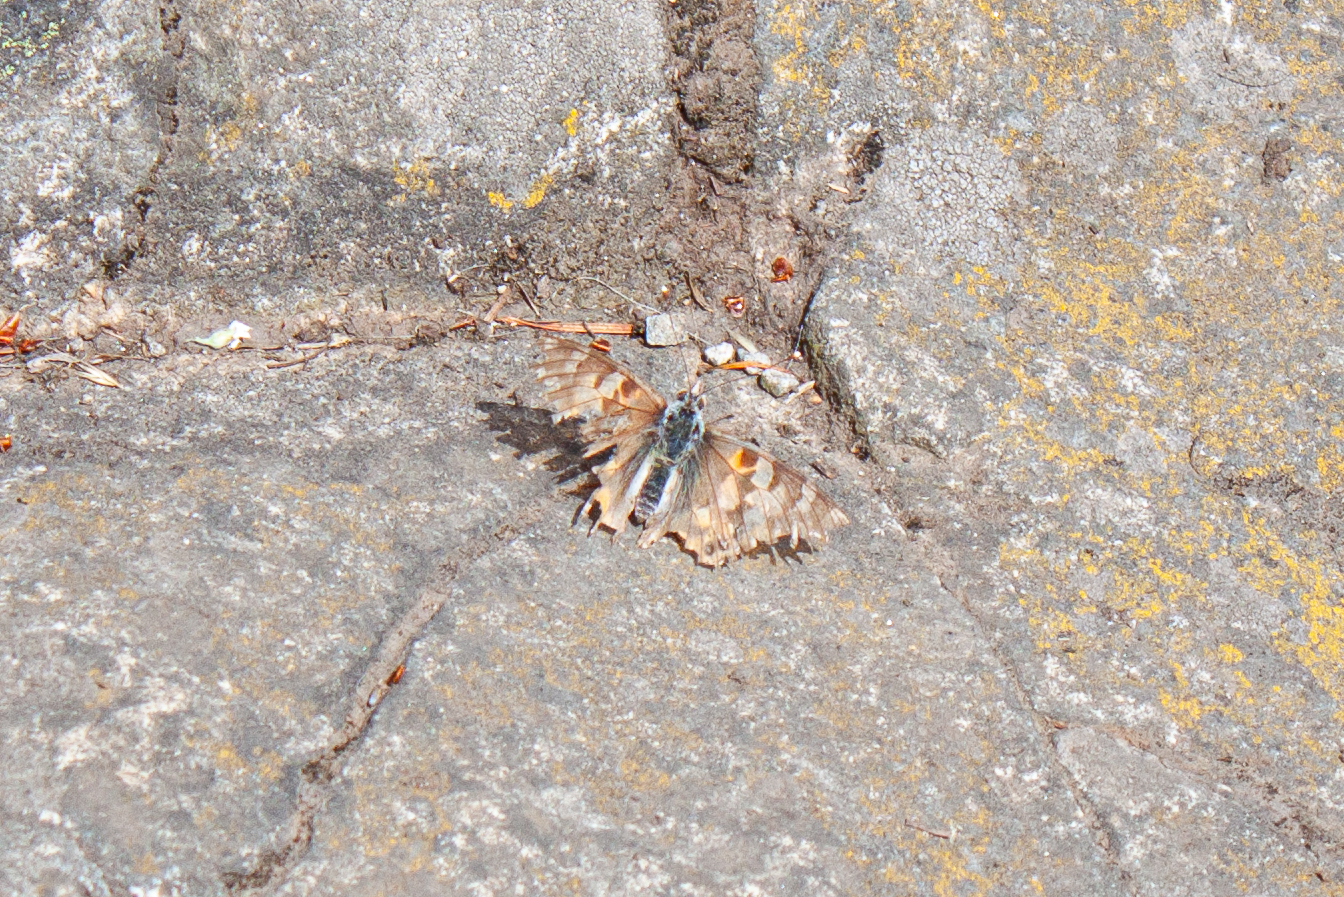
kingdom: Animalia
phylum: Arthropoda
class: Insecta
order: Lepidoptera
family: Nymphalidae
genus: Vanessa
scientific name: Vanessa cardui
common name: Painted lady
